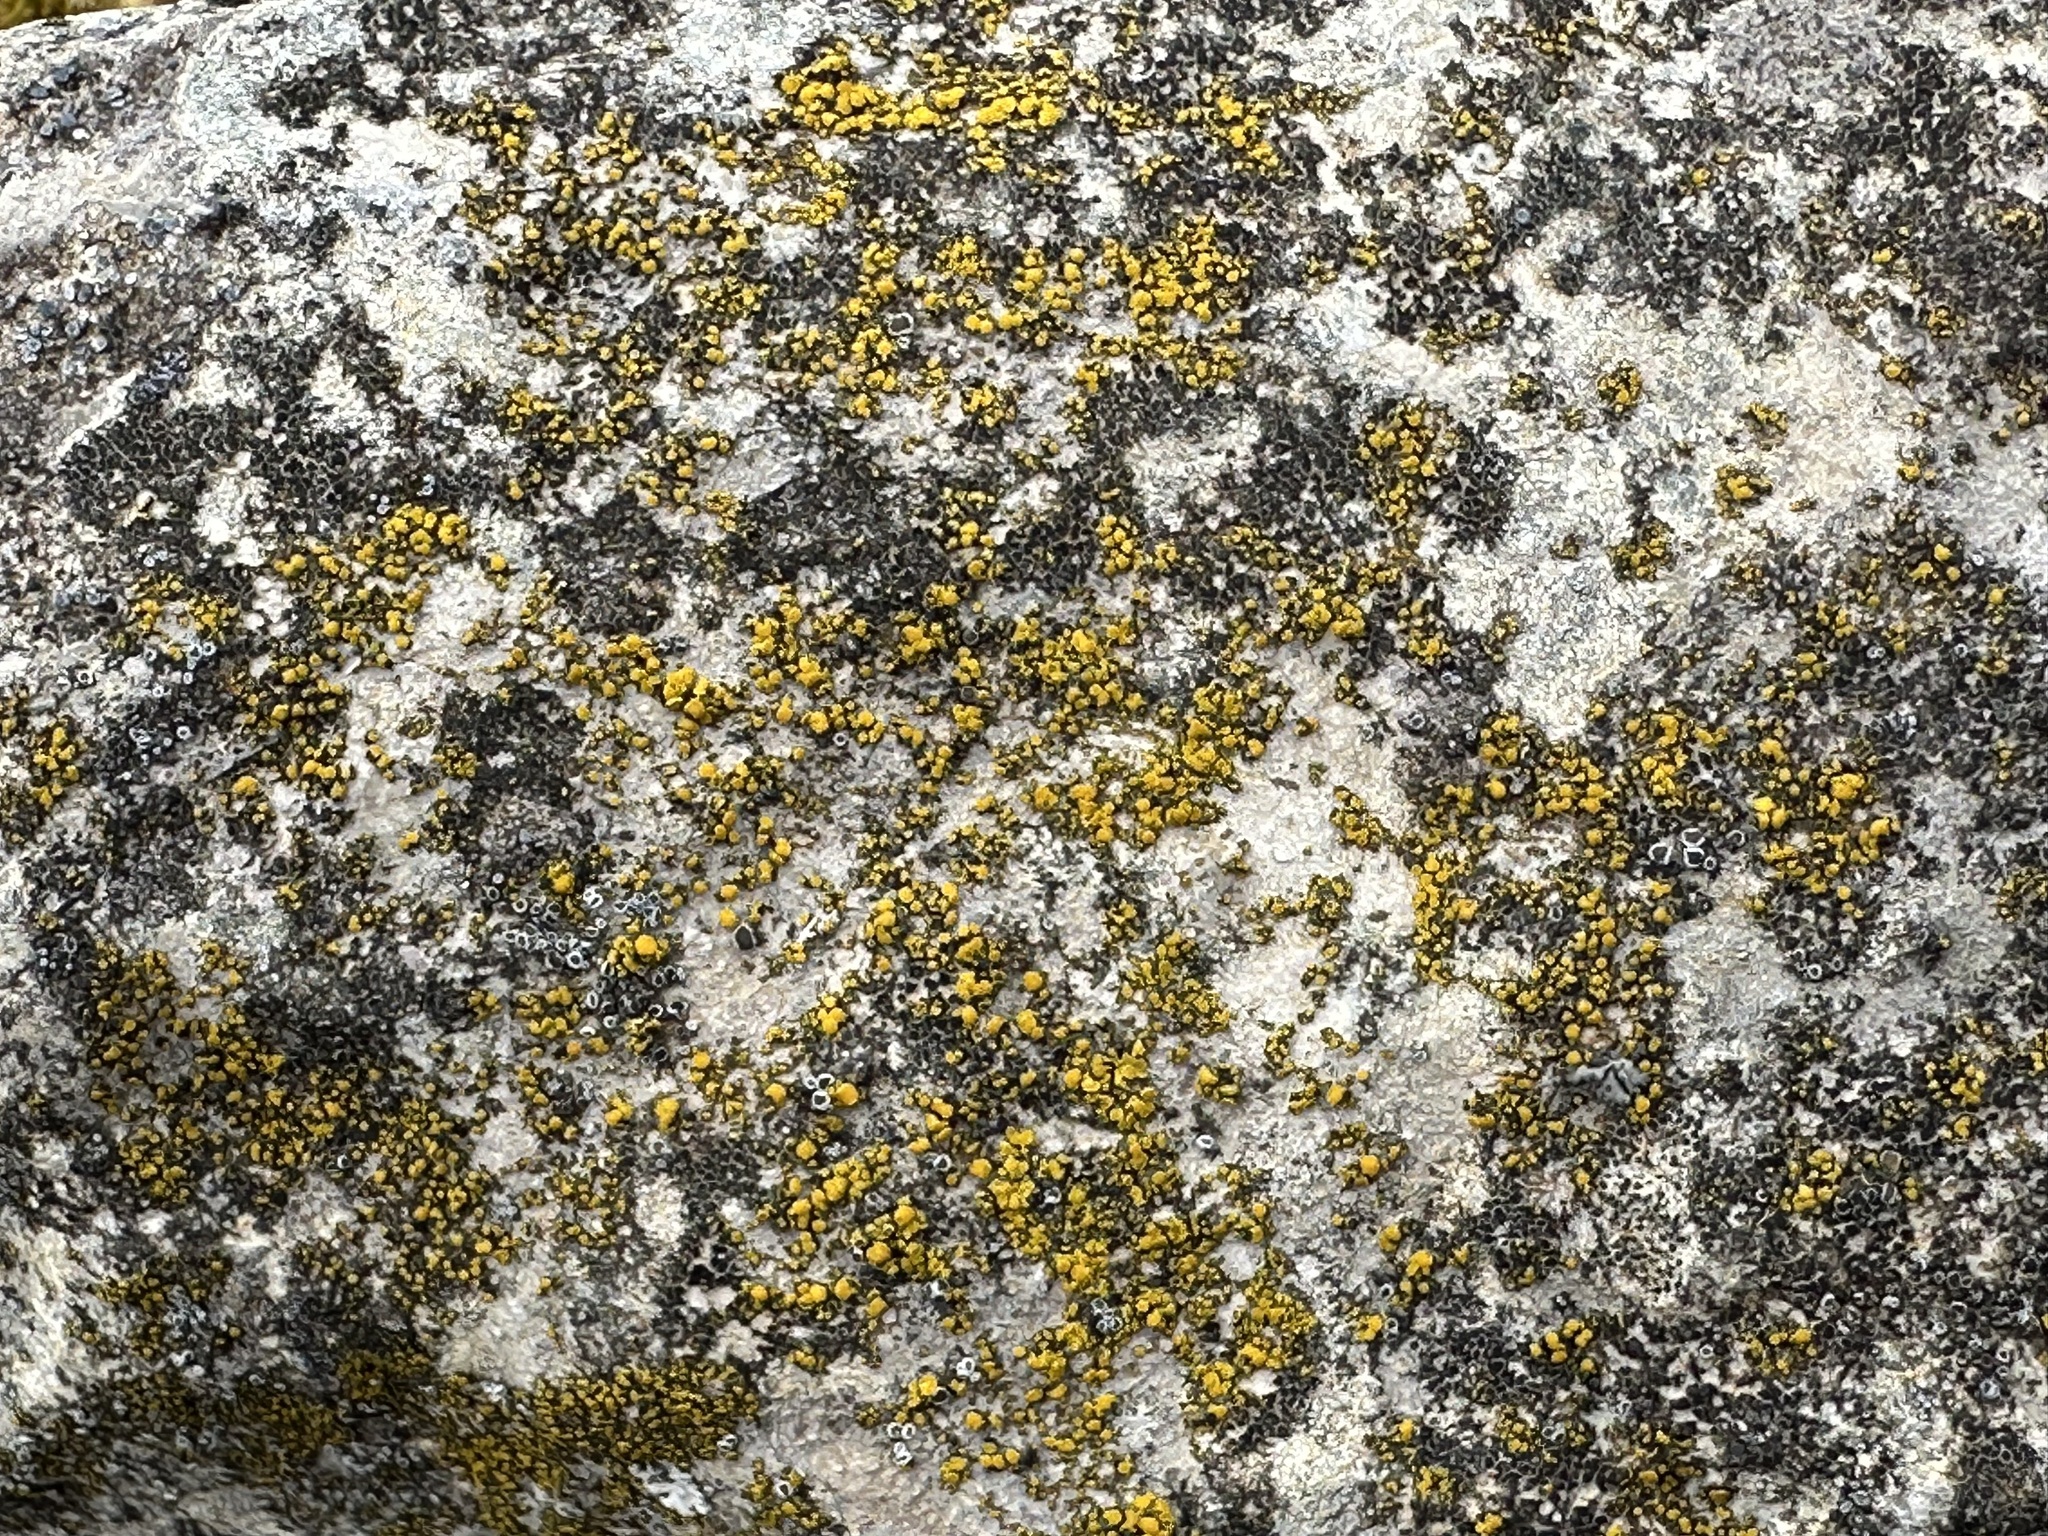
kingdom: Fungi
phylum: Ascomycota
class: Candelariomycetes
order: Candelariales
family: Candelariaceae
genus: Candelariella
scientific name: Candelariella aurella
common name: Hidden goldspeck lichen
